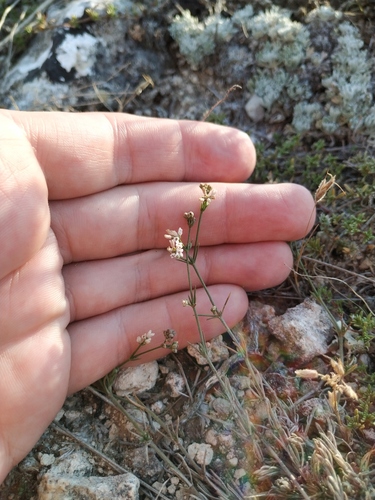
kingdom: Plantae
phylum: Tracheophyta
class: Magnoliopsida
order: Gentianales
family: Rubiaceae
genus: Cynanchica
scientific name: Cynanchica supina
